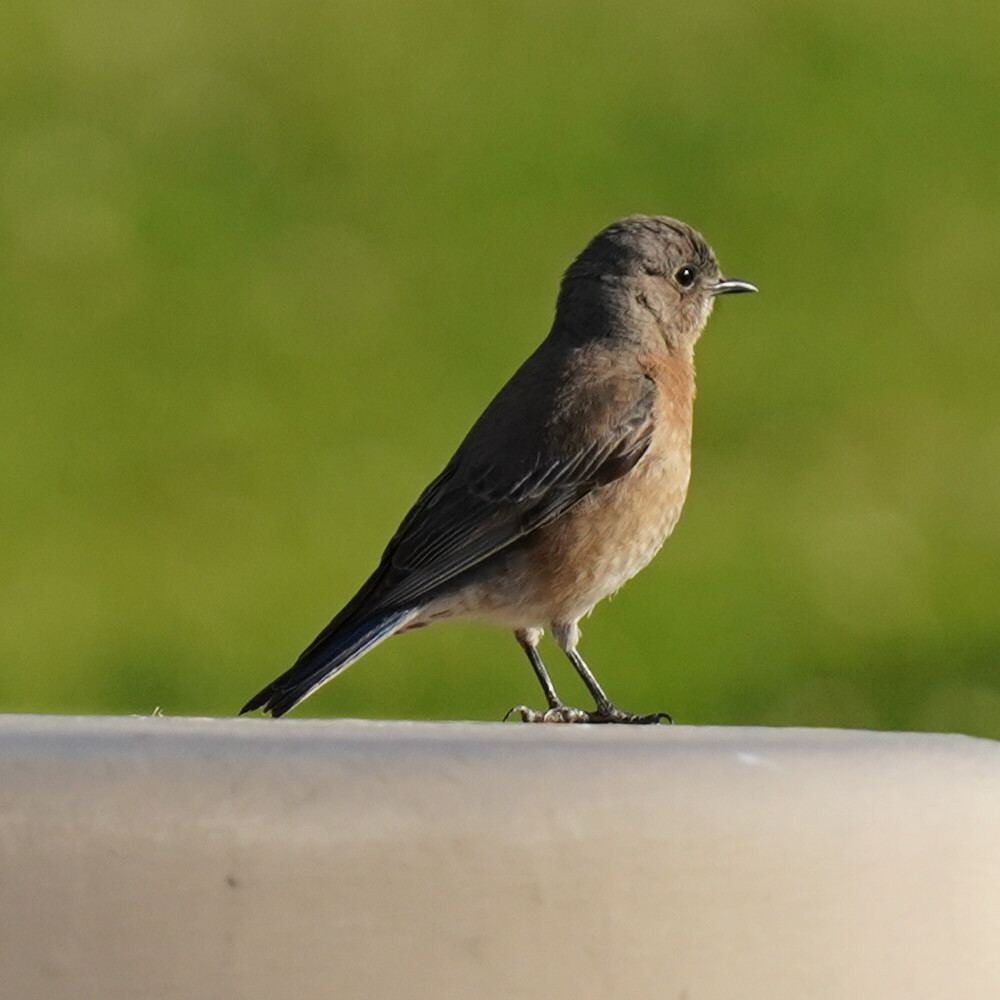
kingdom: Animalia
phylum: Chordata
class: Aves
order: Passeriformes
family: Turdidae
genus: Sialia
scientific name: Sialia mexicana
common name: Western bluebird
